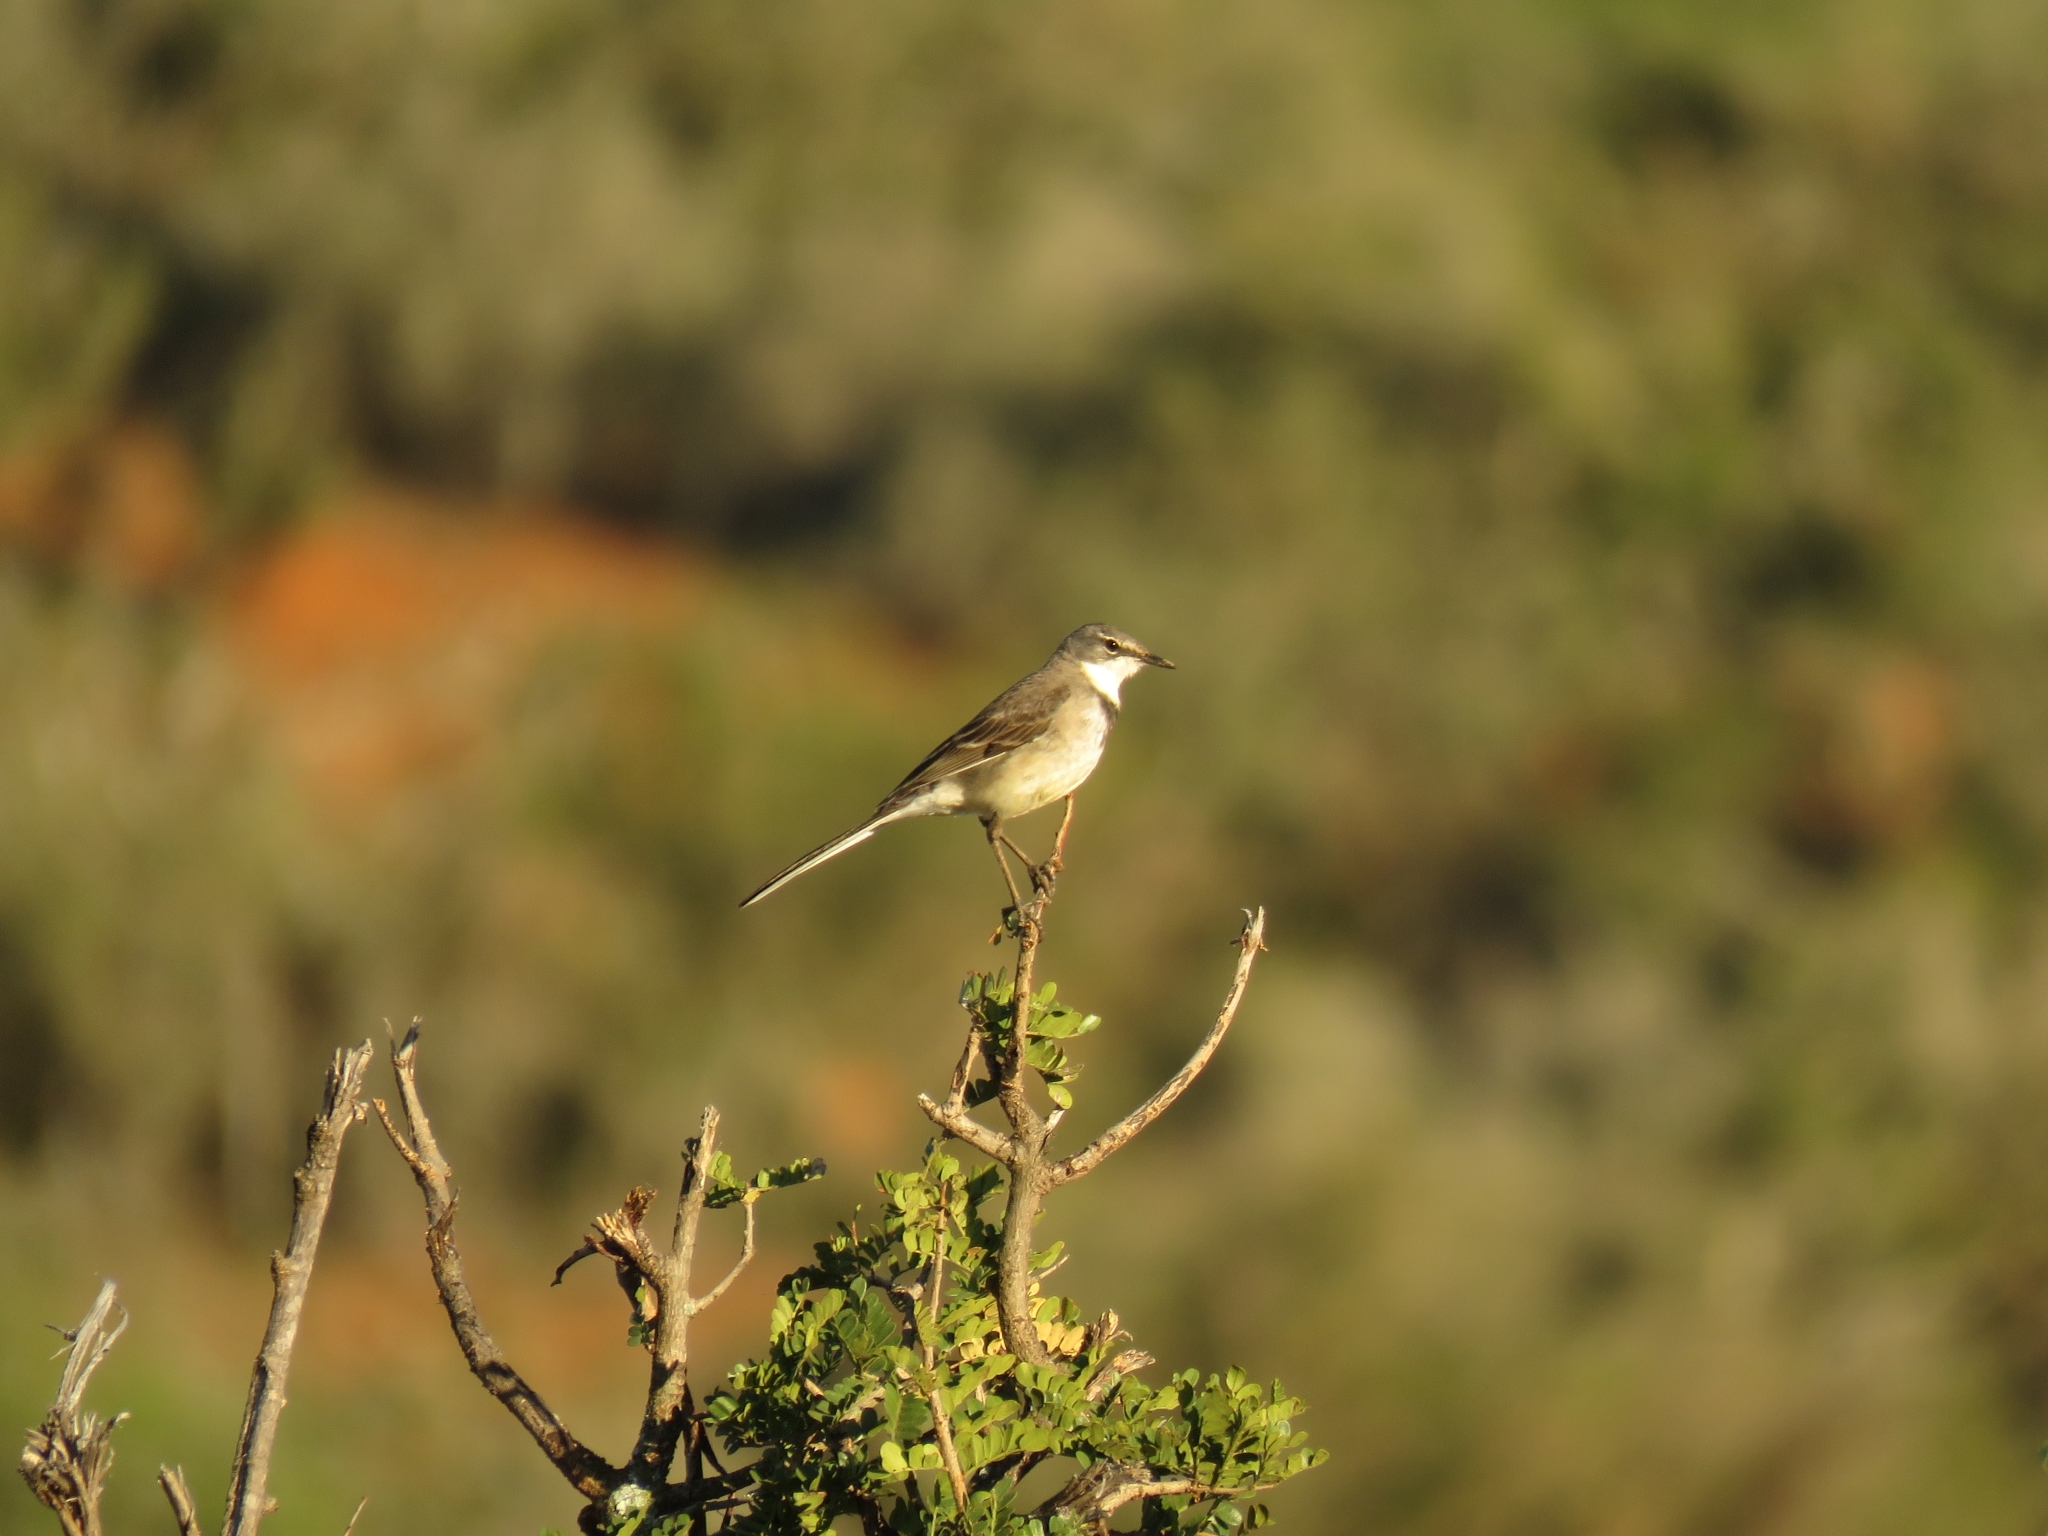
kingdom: Animalia
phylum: Chordata
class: Aves
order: Passeriformes
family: Motacillidae
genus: Motacilla
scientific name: Motacilla capensis
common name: Cape wagtail
